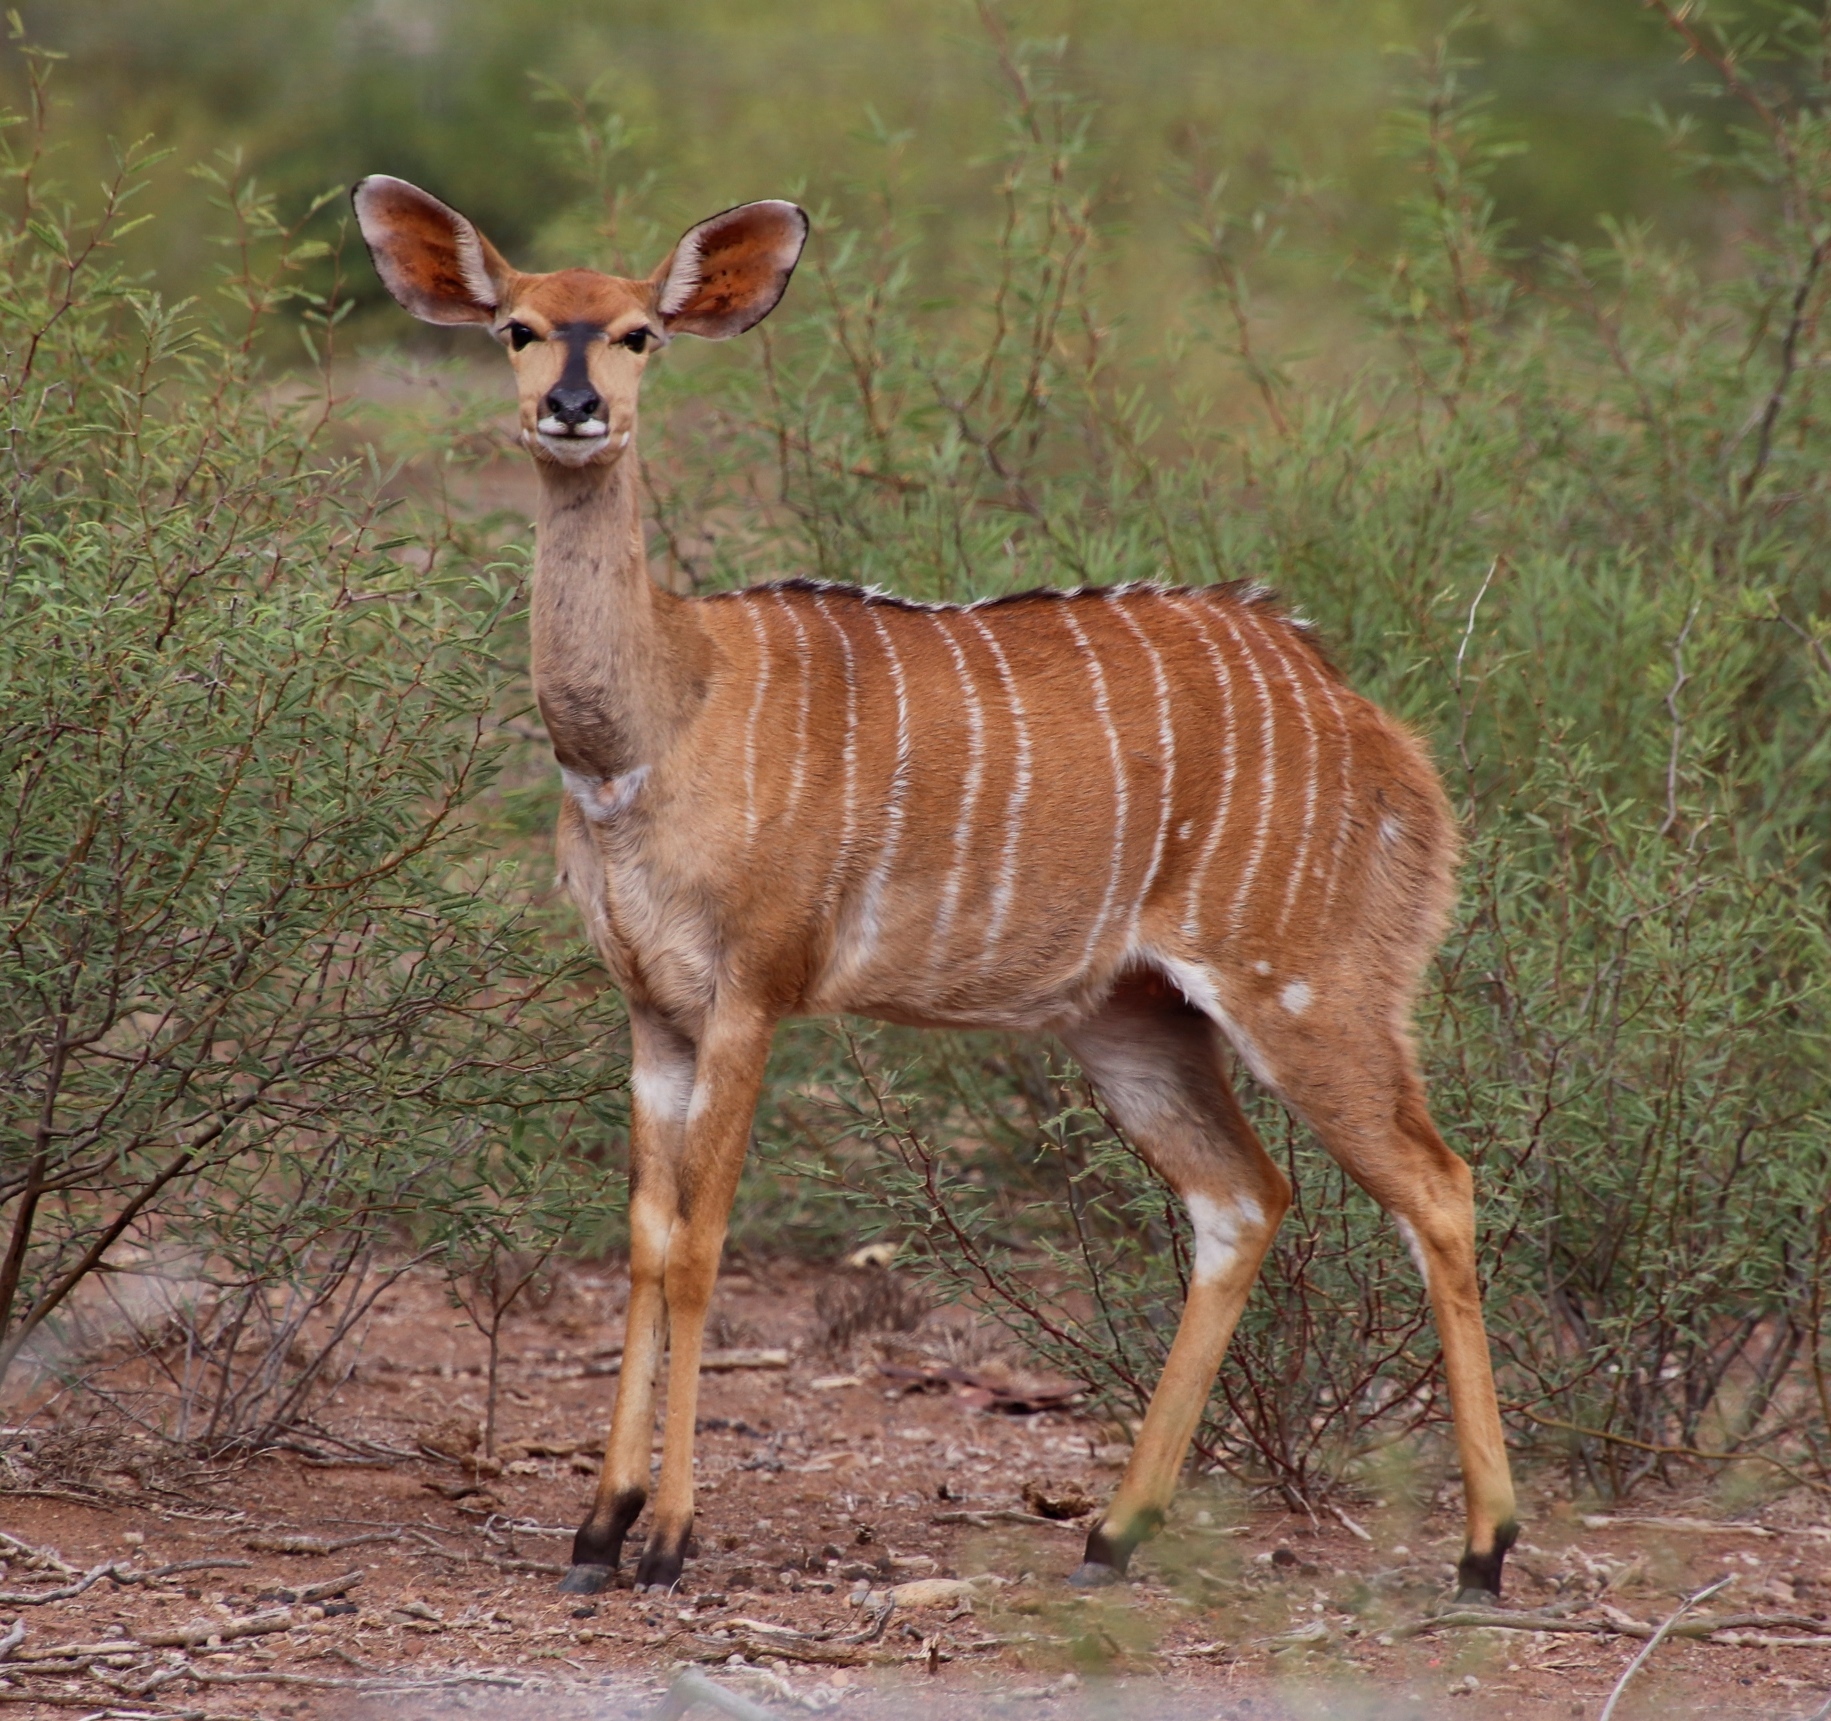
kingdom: Animalia
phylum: Chordata
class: Mammalia
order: Artiodactyla
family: Bovidae
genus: Tragelaphus
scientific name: Tragelaphus angasii
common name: Nyala
